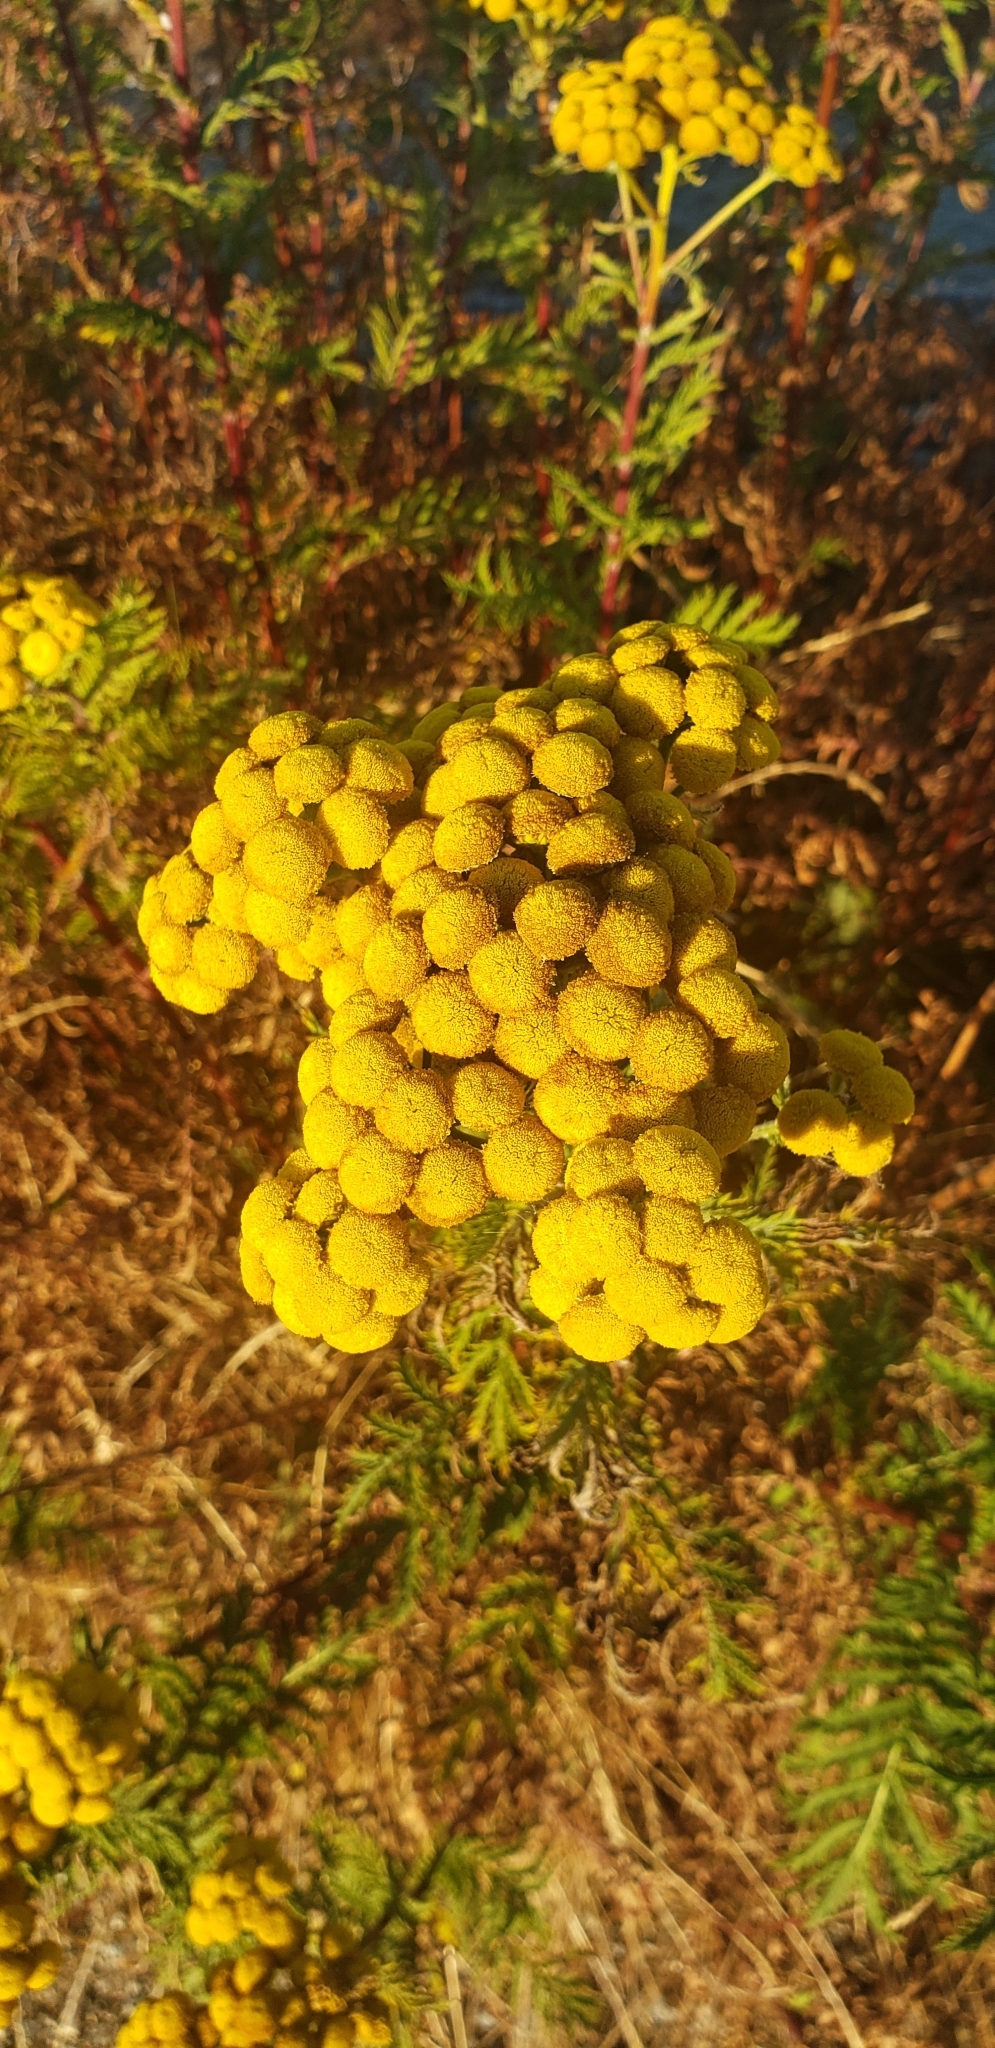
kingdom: Plantae
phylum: Tracheophyta
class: Magnoliopsida
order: Asterales
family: Asteraceae
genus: Tanacetum
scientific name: Tanacetum vulgare
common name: Common tansy
